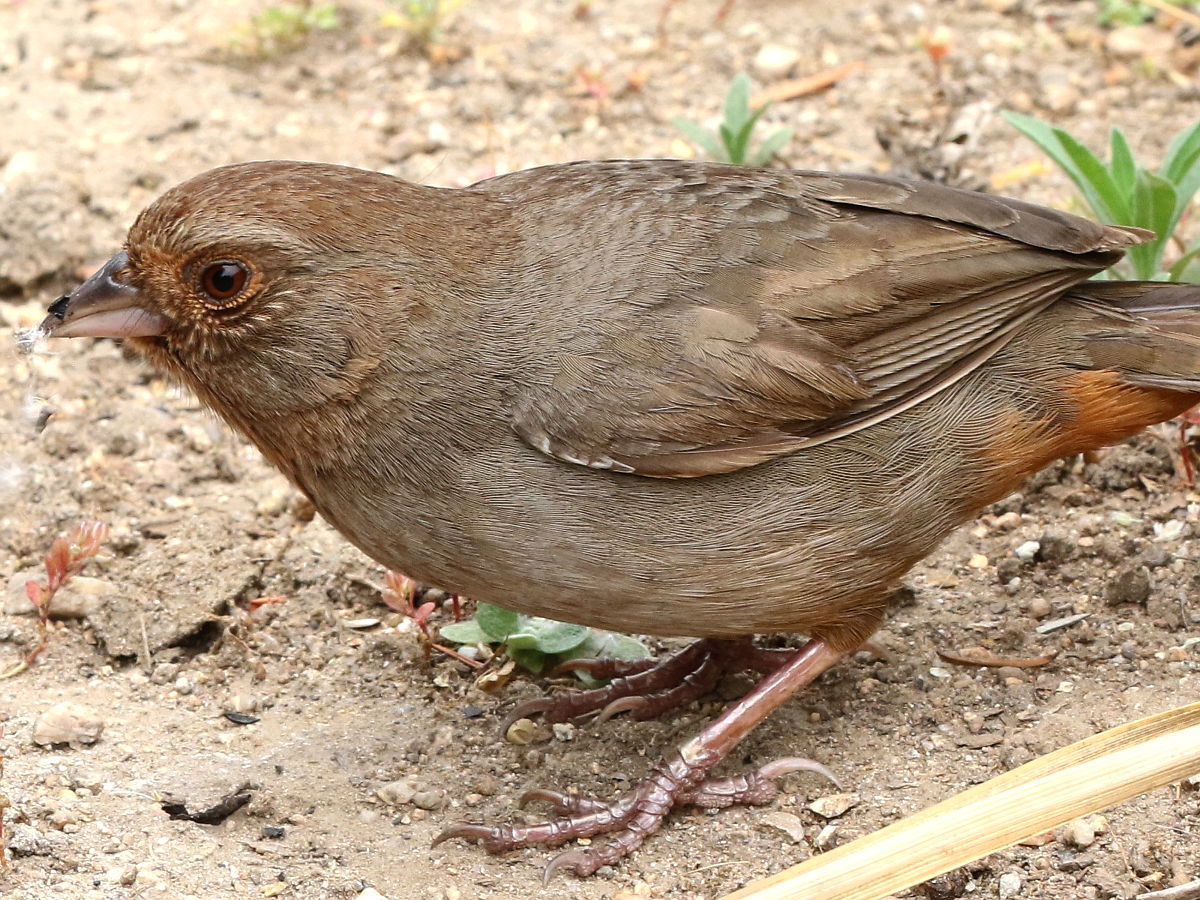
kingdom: Animalia
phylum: Chordata
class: Aves
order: Passeriformes
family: Passerellidae
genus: Melozone
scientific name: Melozone crissalis
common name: California towhee
